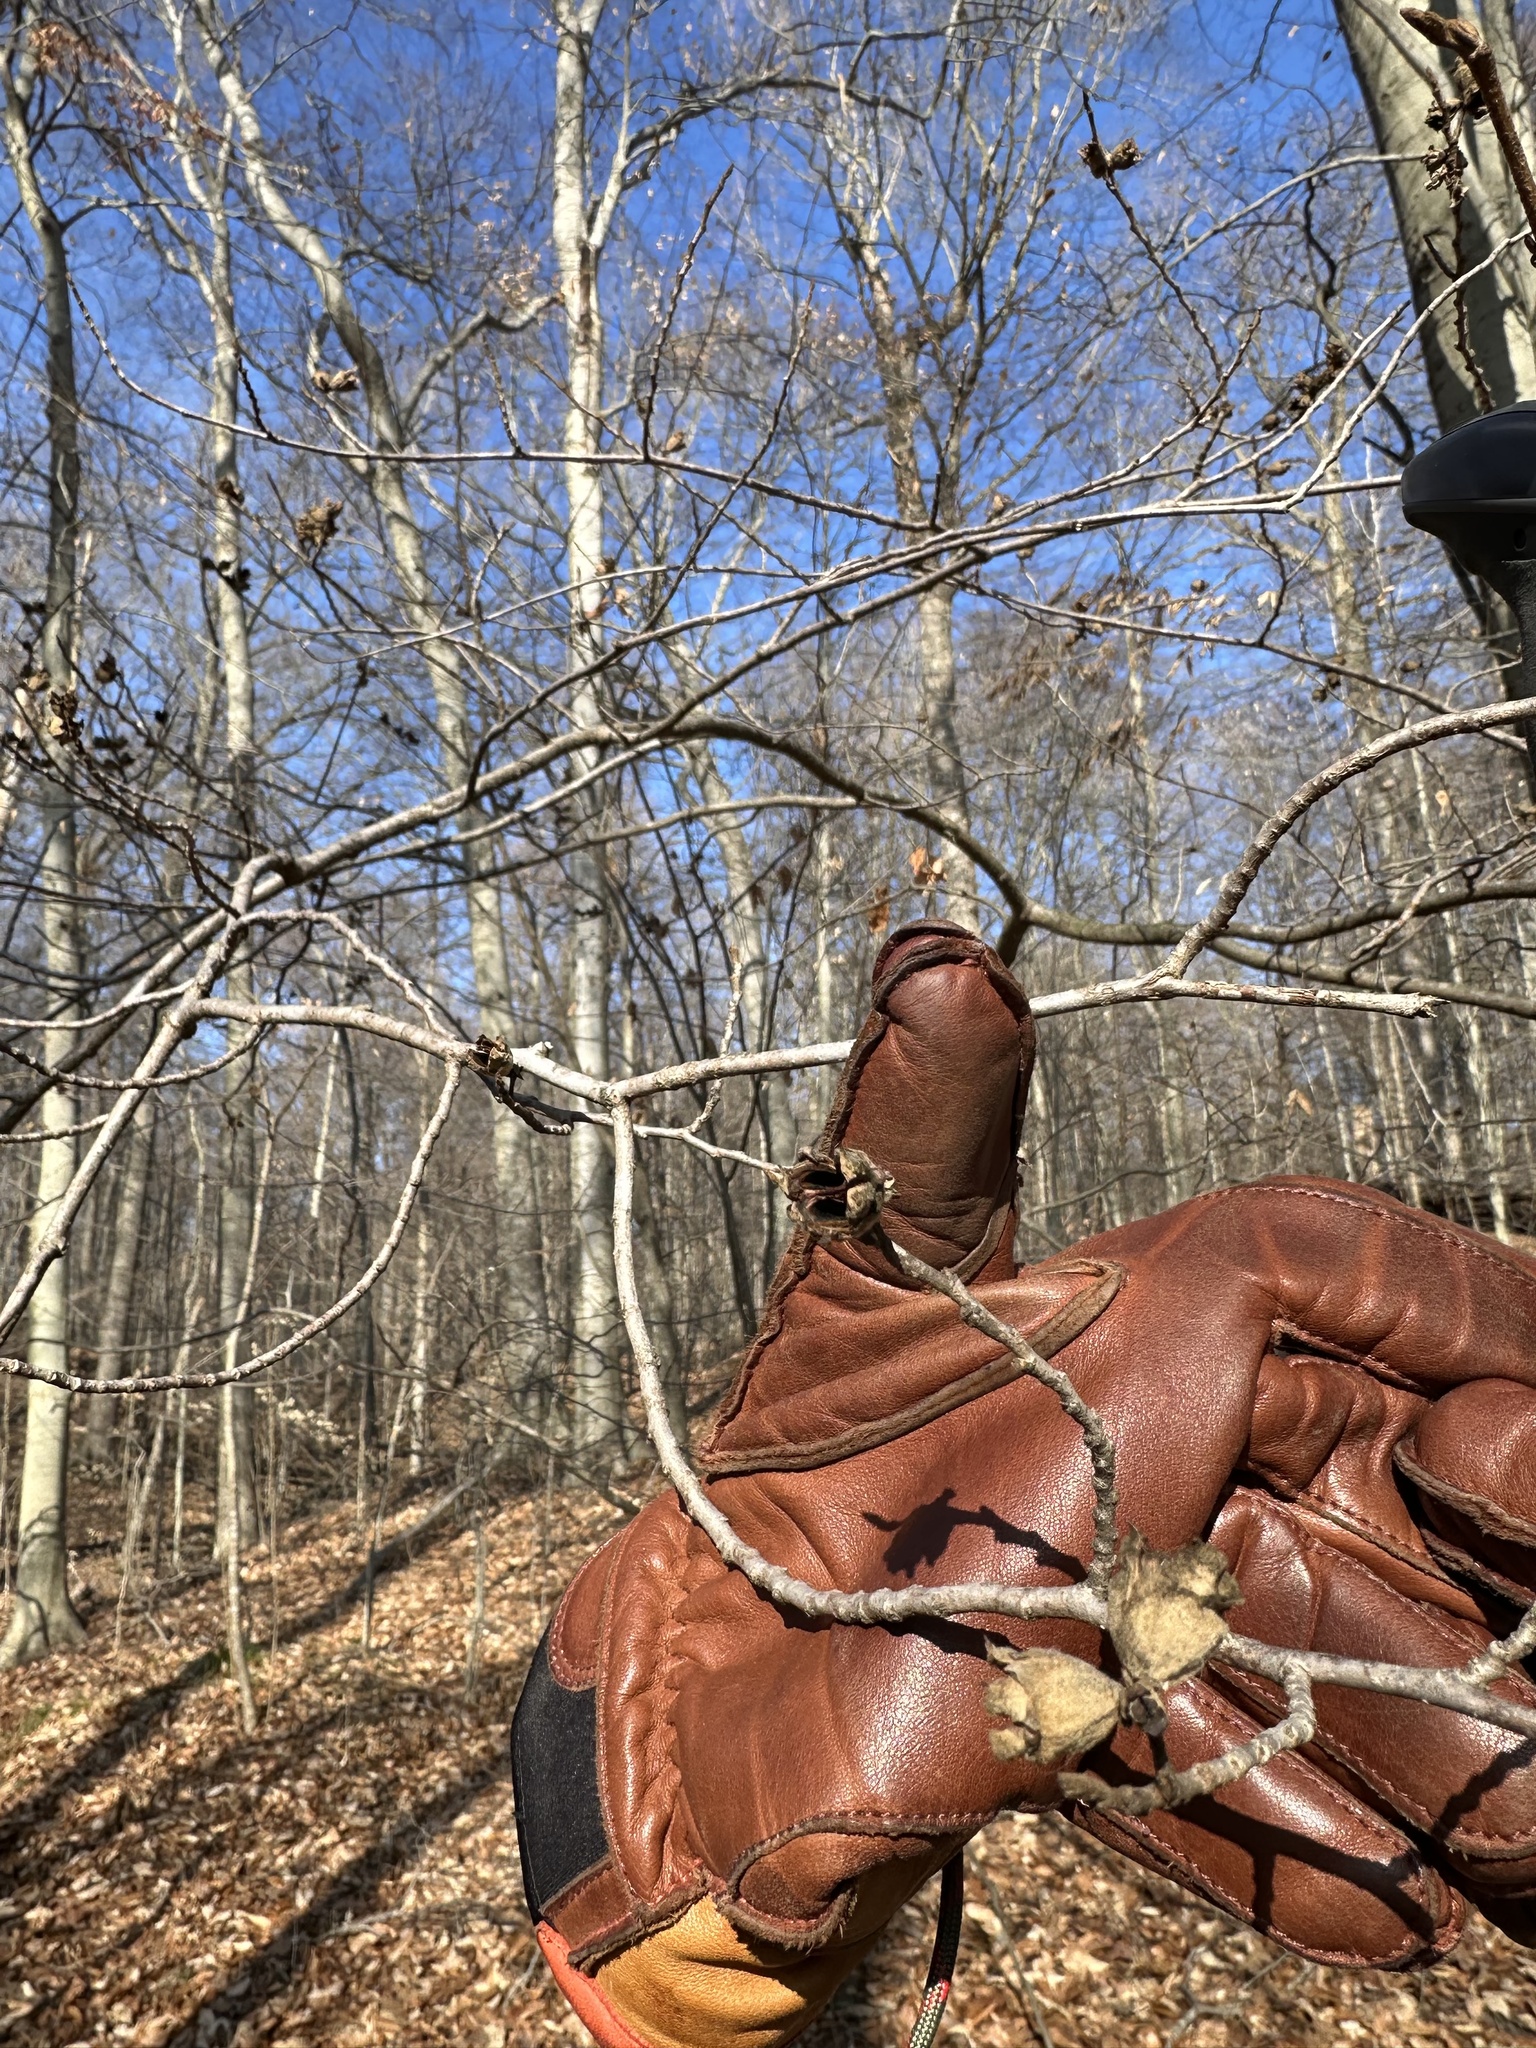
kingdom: Plantae
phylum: Tracheophyta
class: Magnoliopsida
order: Saxifragales
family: Hamamelidaceae
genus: Hamamelis
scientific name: Hamamelis virginiana
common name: Witch-hazel
